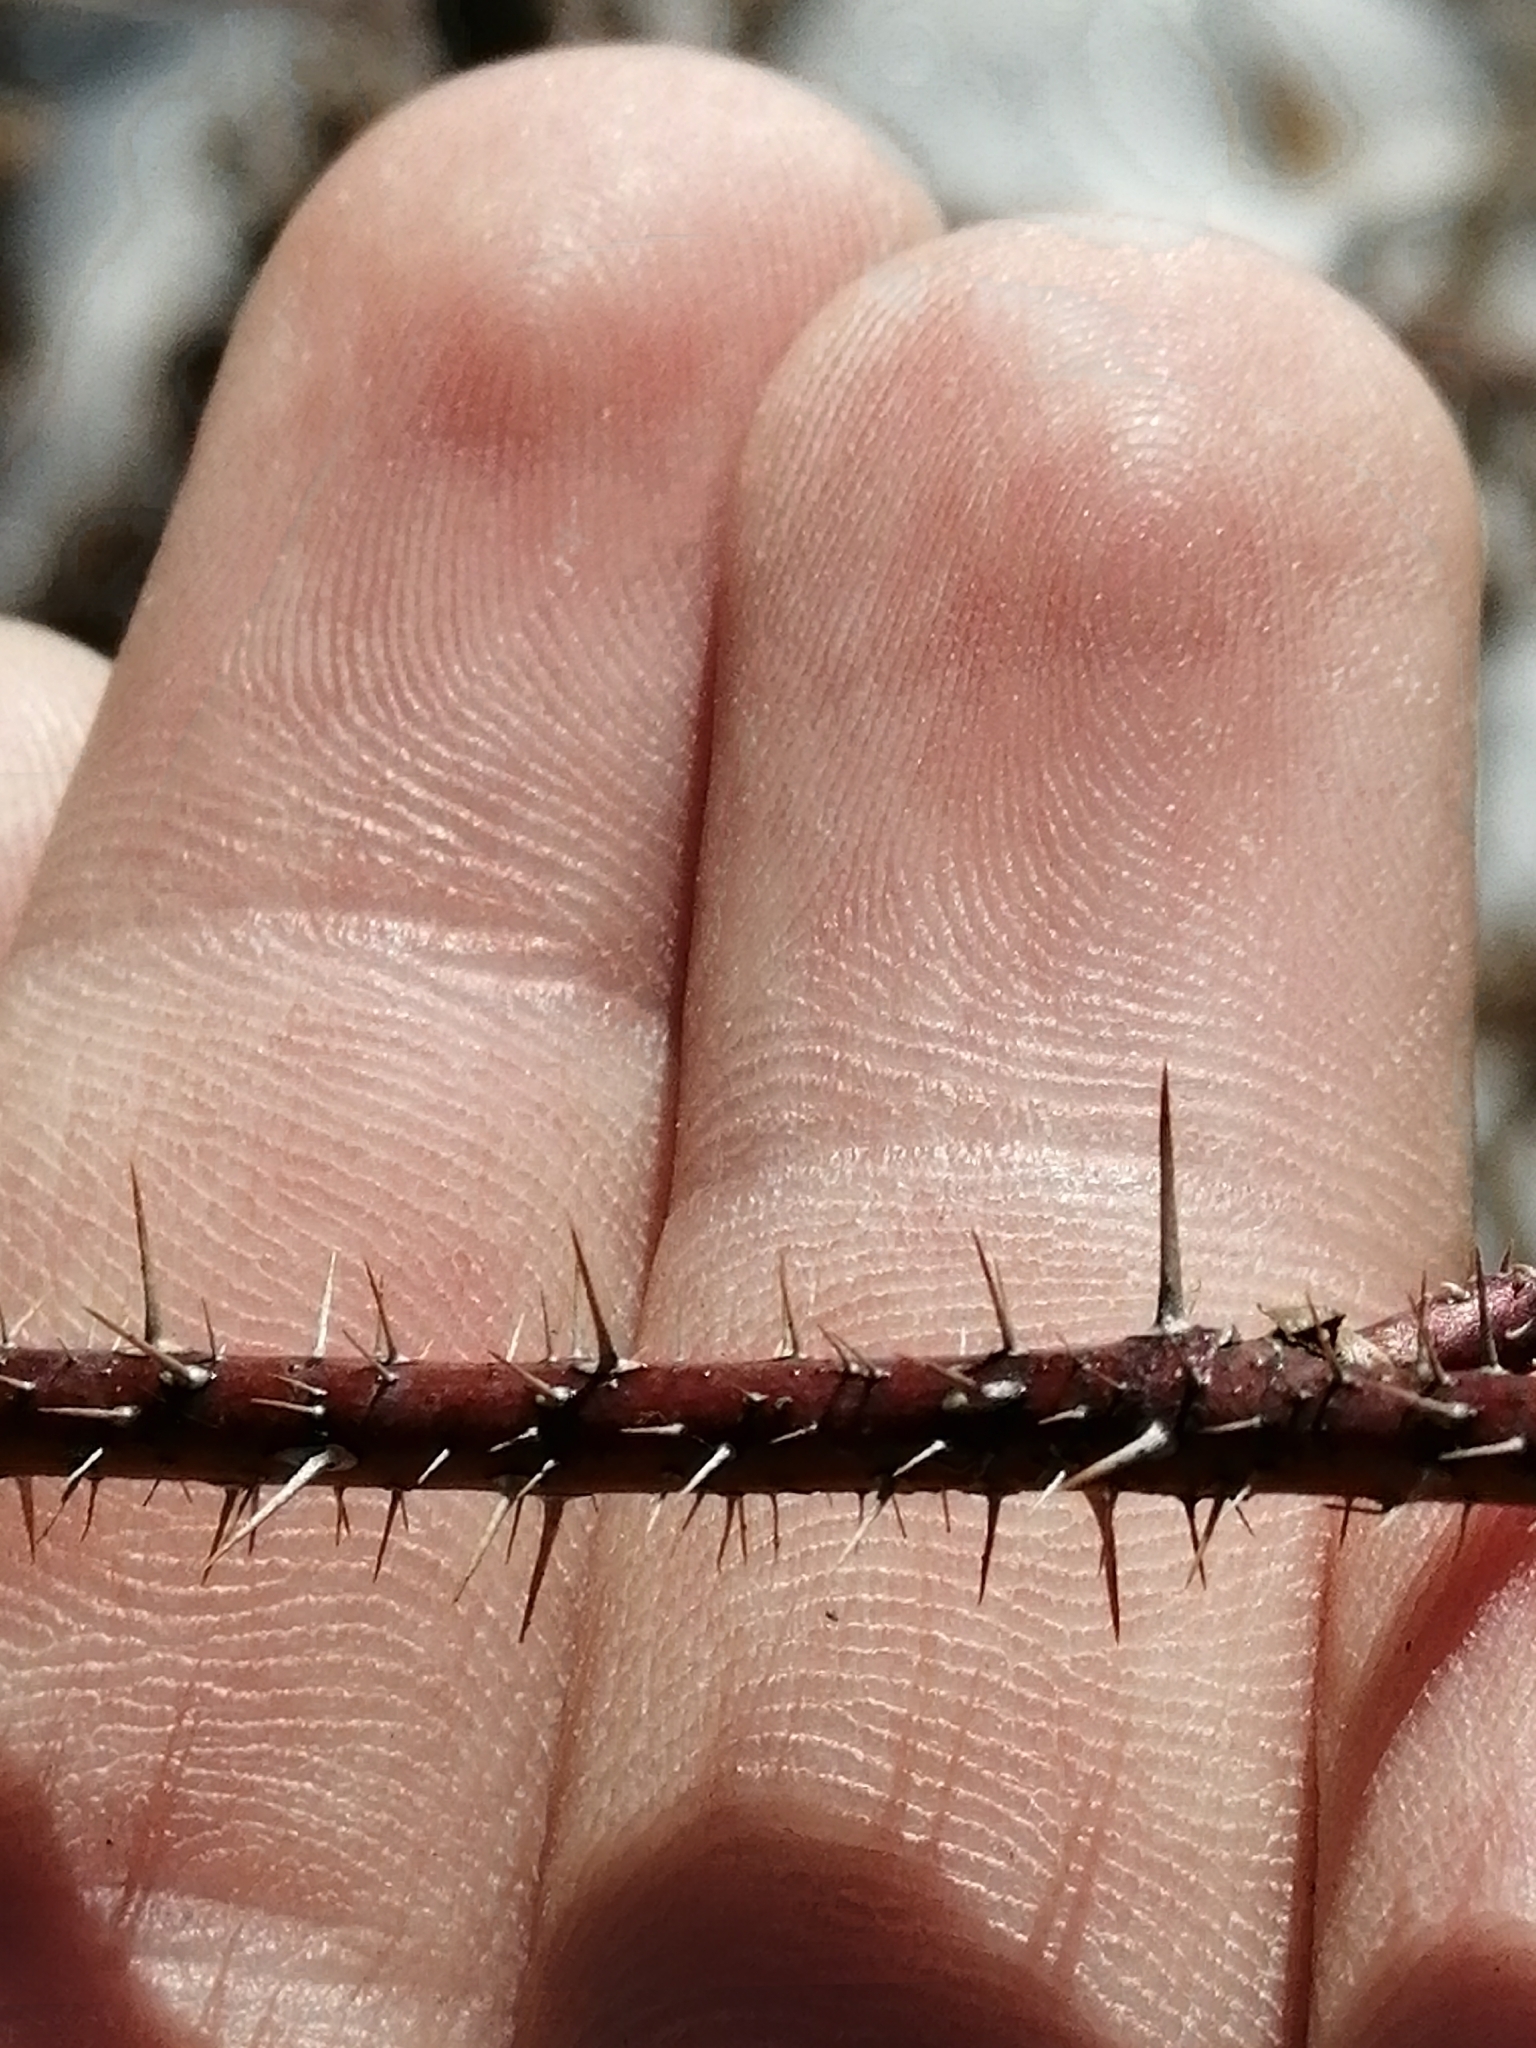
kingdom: Plantae
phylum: Tracheophyta
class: Magnoliopsida
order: Rosales
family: Rosaceae
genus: Rosa
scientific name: Rosa acicularis
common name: Prickly rose
